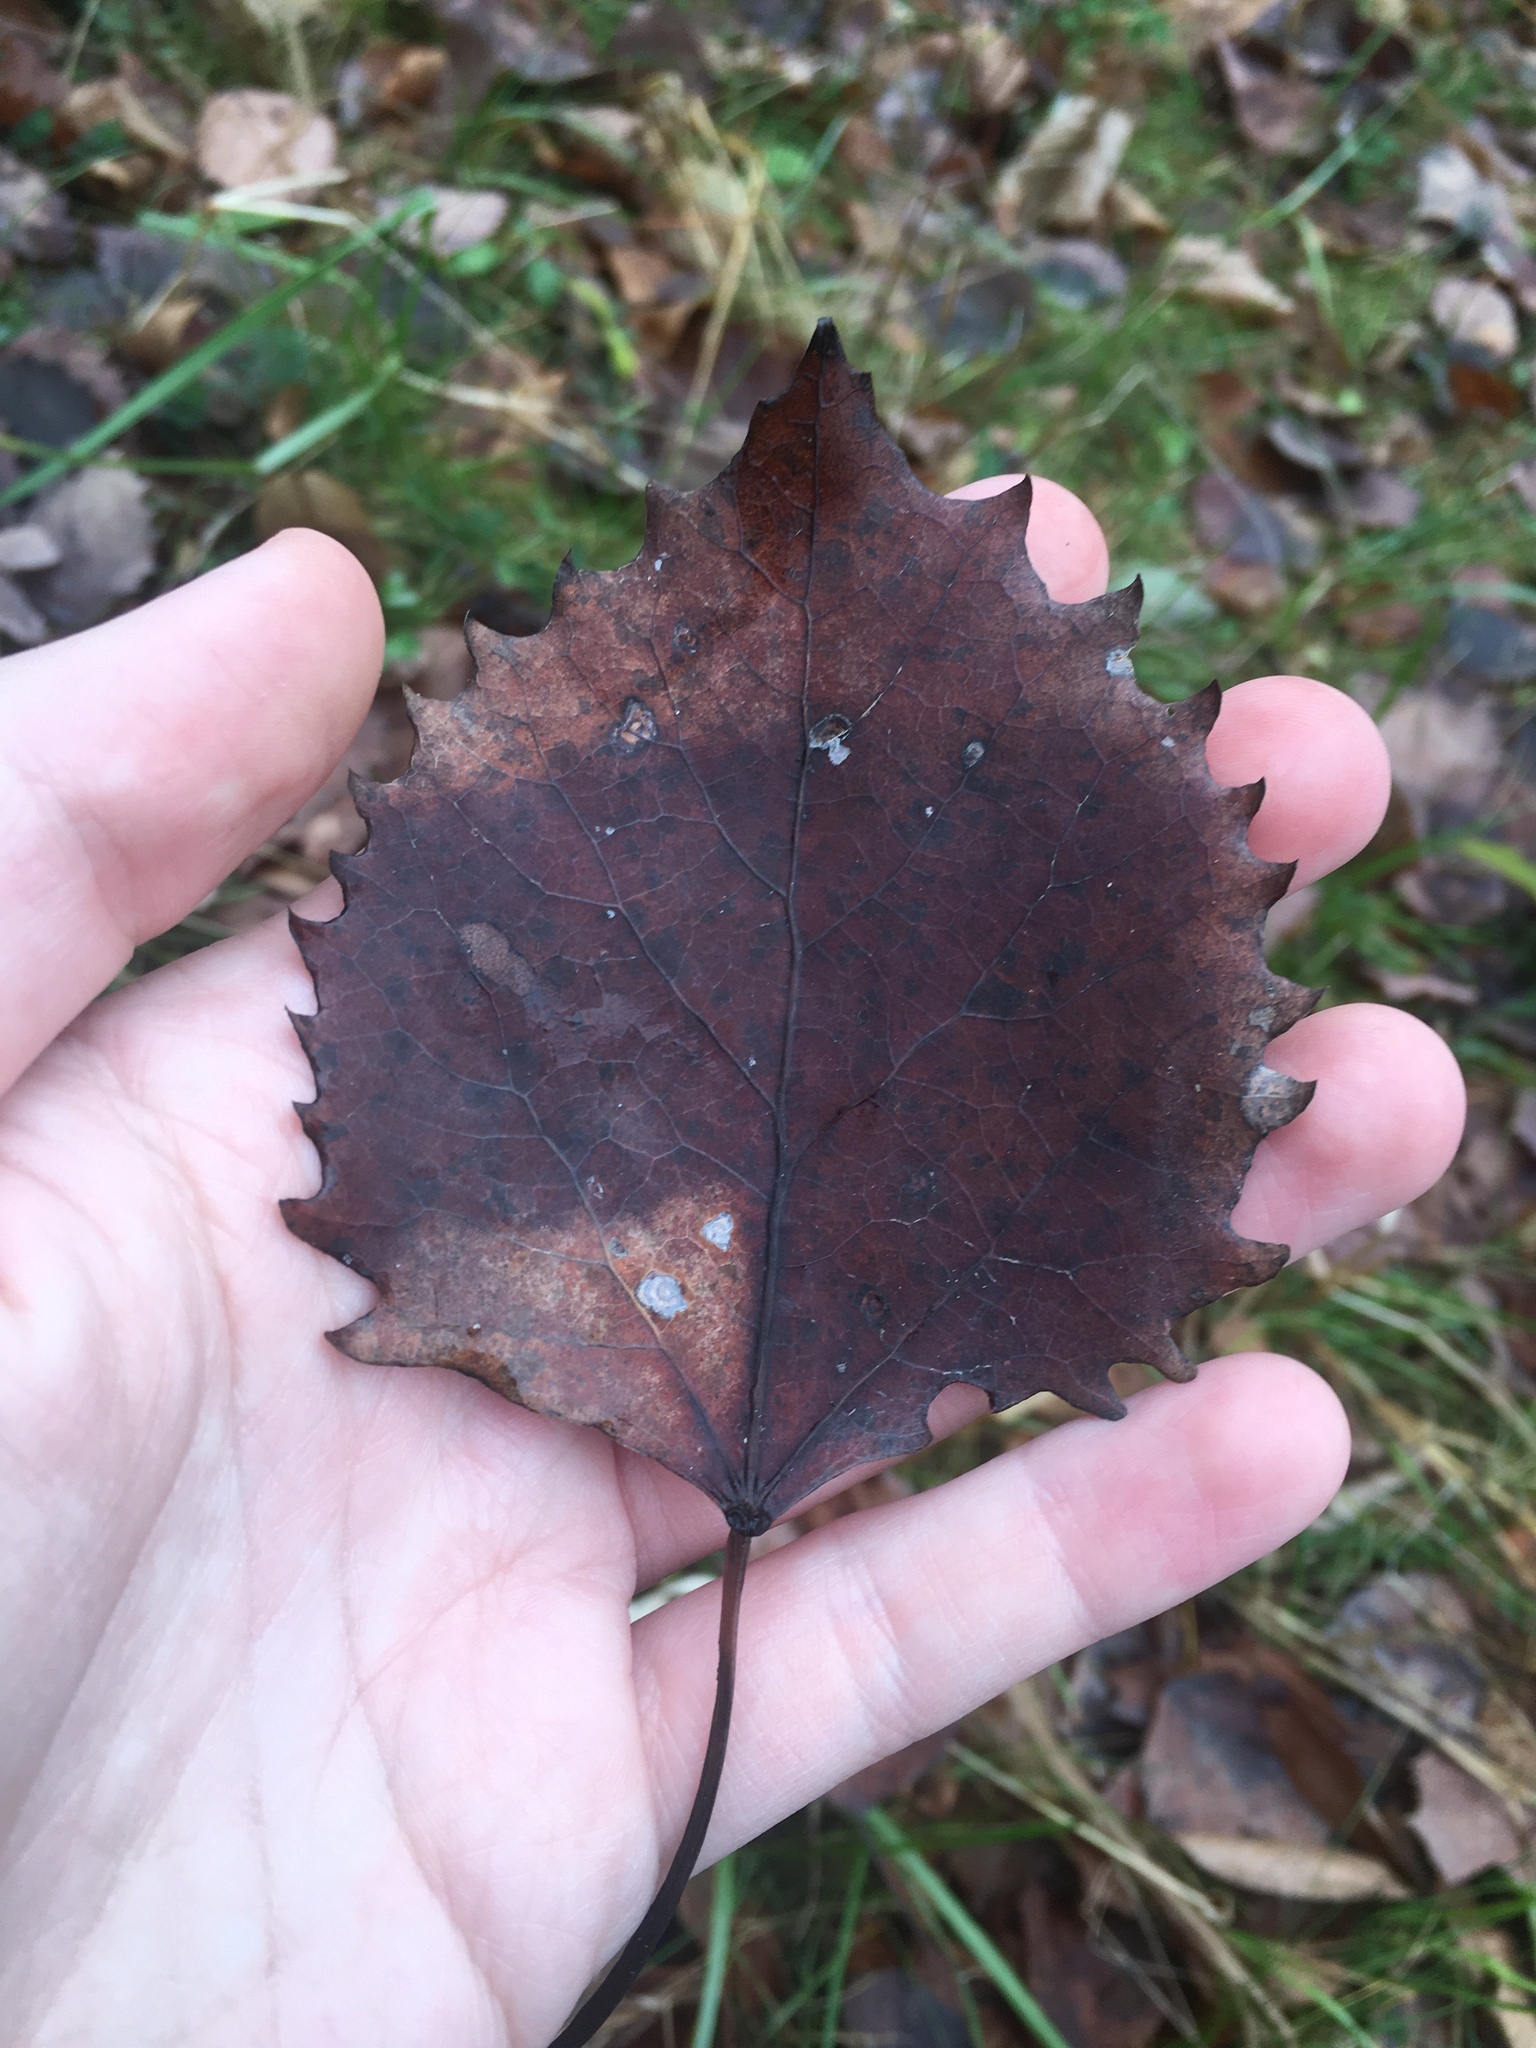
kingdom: Plantae
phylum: Tracheophyta
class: Magnoliopsida
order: Malpighiales
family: Salicaceae
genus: Populus
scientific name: Populus grandidentata
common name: Bigtooth aspen
